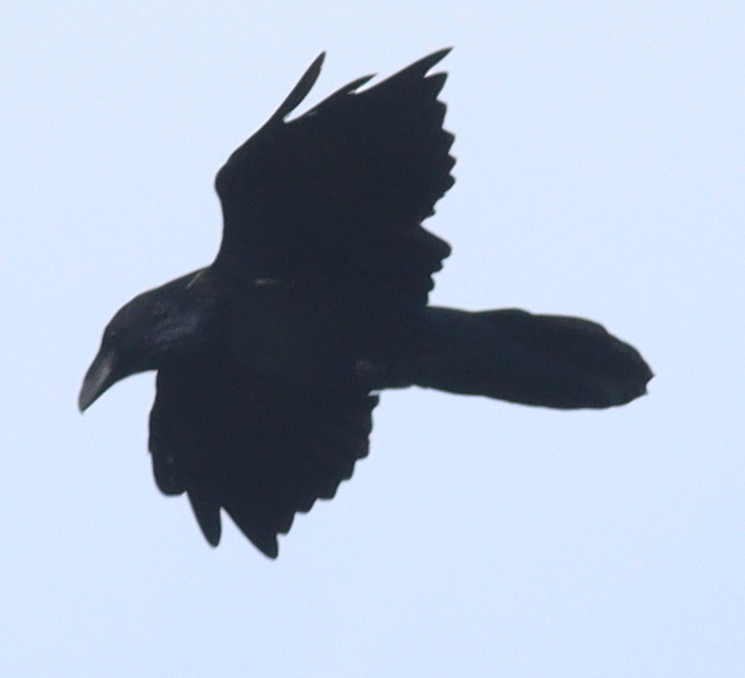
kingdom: Animalia
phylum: Chordata
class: Aves
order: Passeriformes
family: Corvidae
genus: Corvus
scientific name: Corvus corax
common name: Common raven
